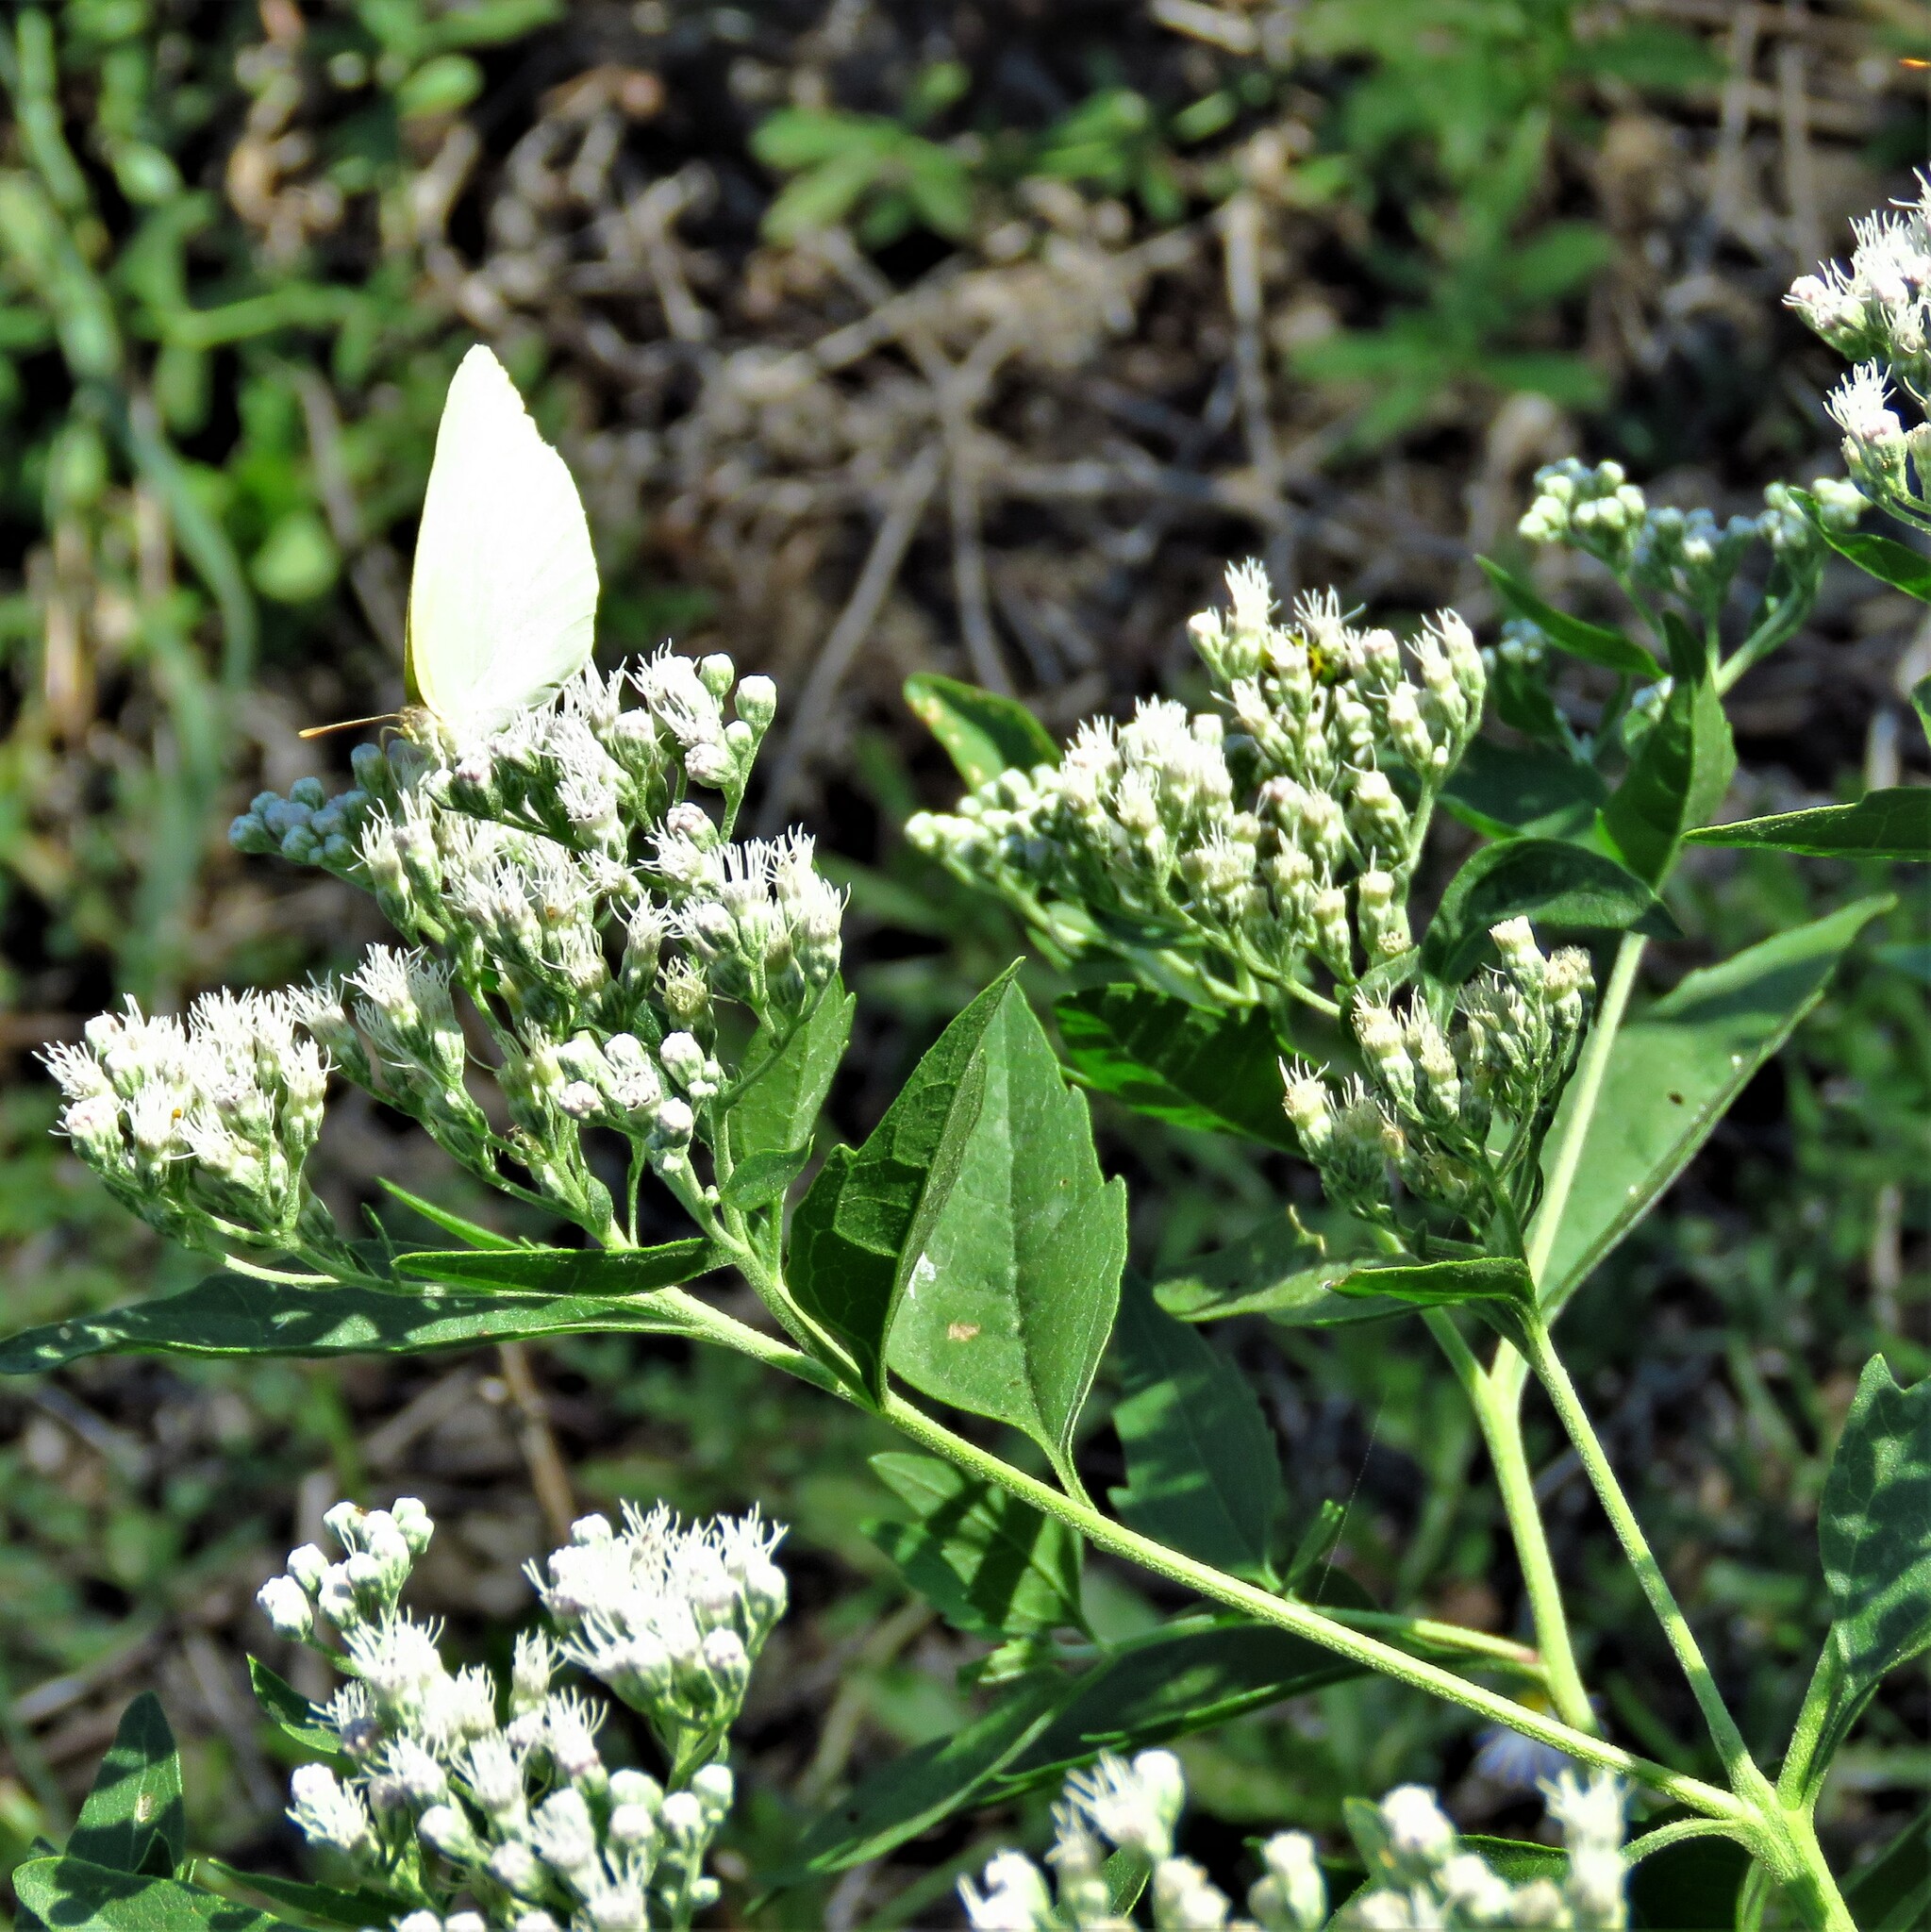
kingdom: Plantae
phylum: Tracheophyta
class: Magnoliopsida
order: Asterales
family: Asteraceae
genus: Eupatorium
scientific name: Eupatorium serotinum
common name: Late boneset
